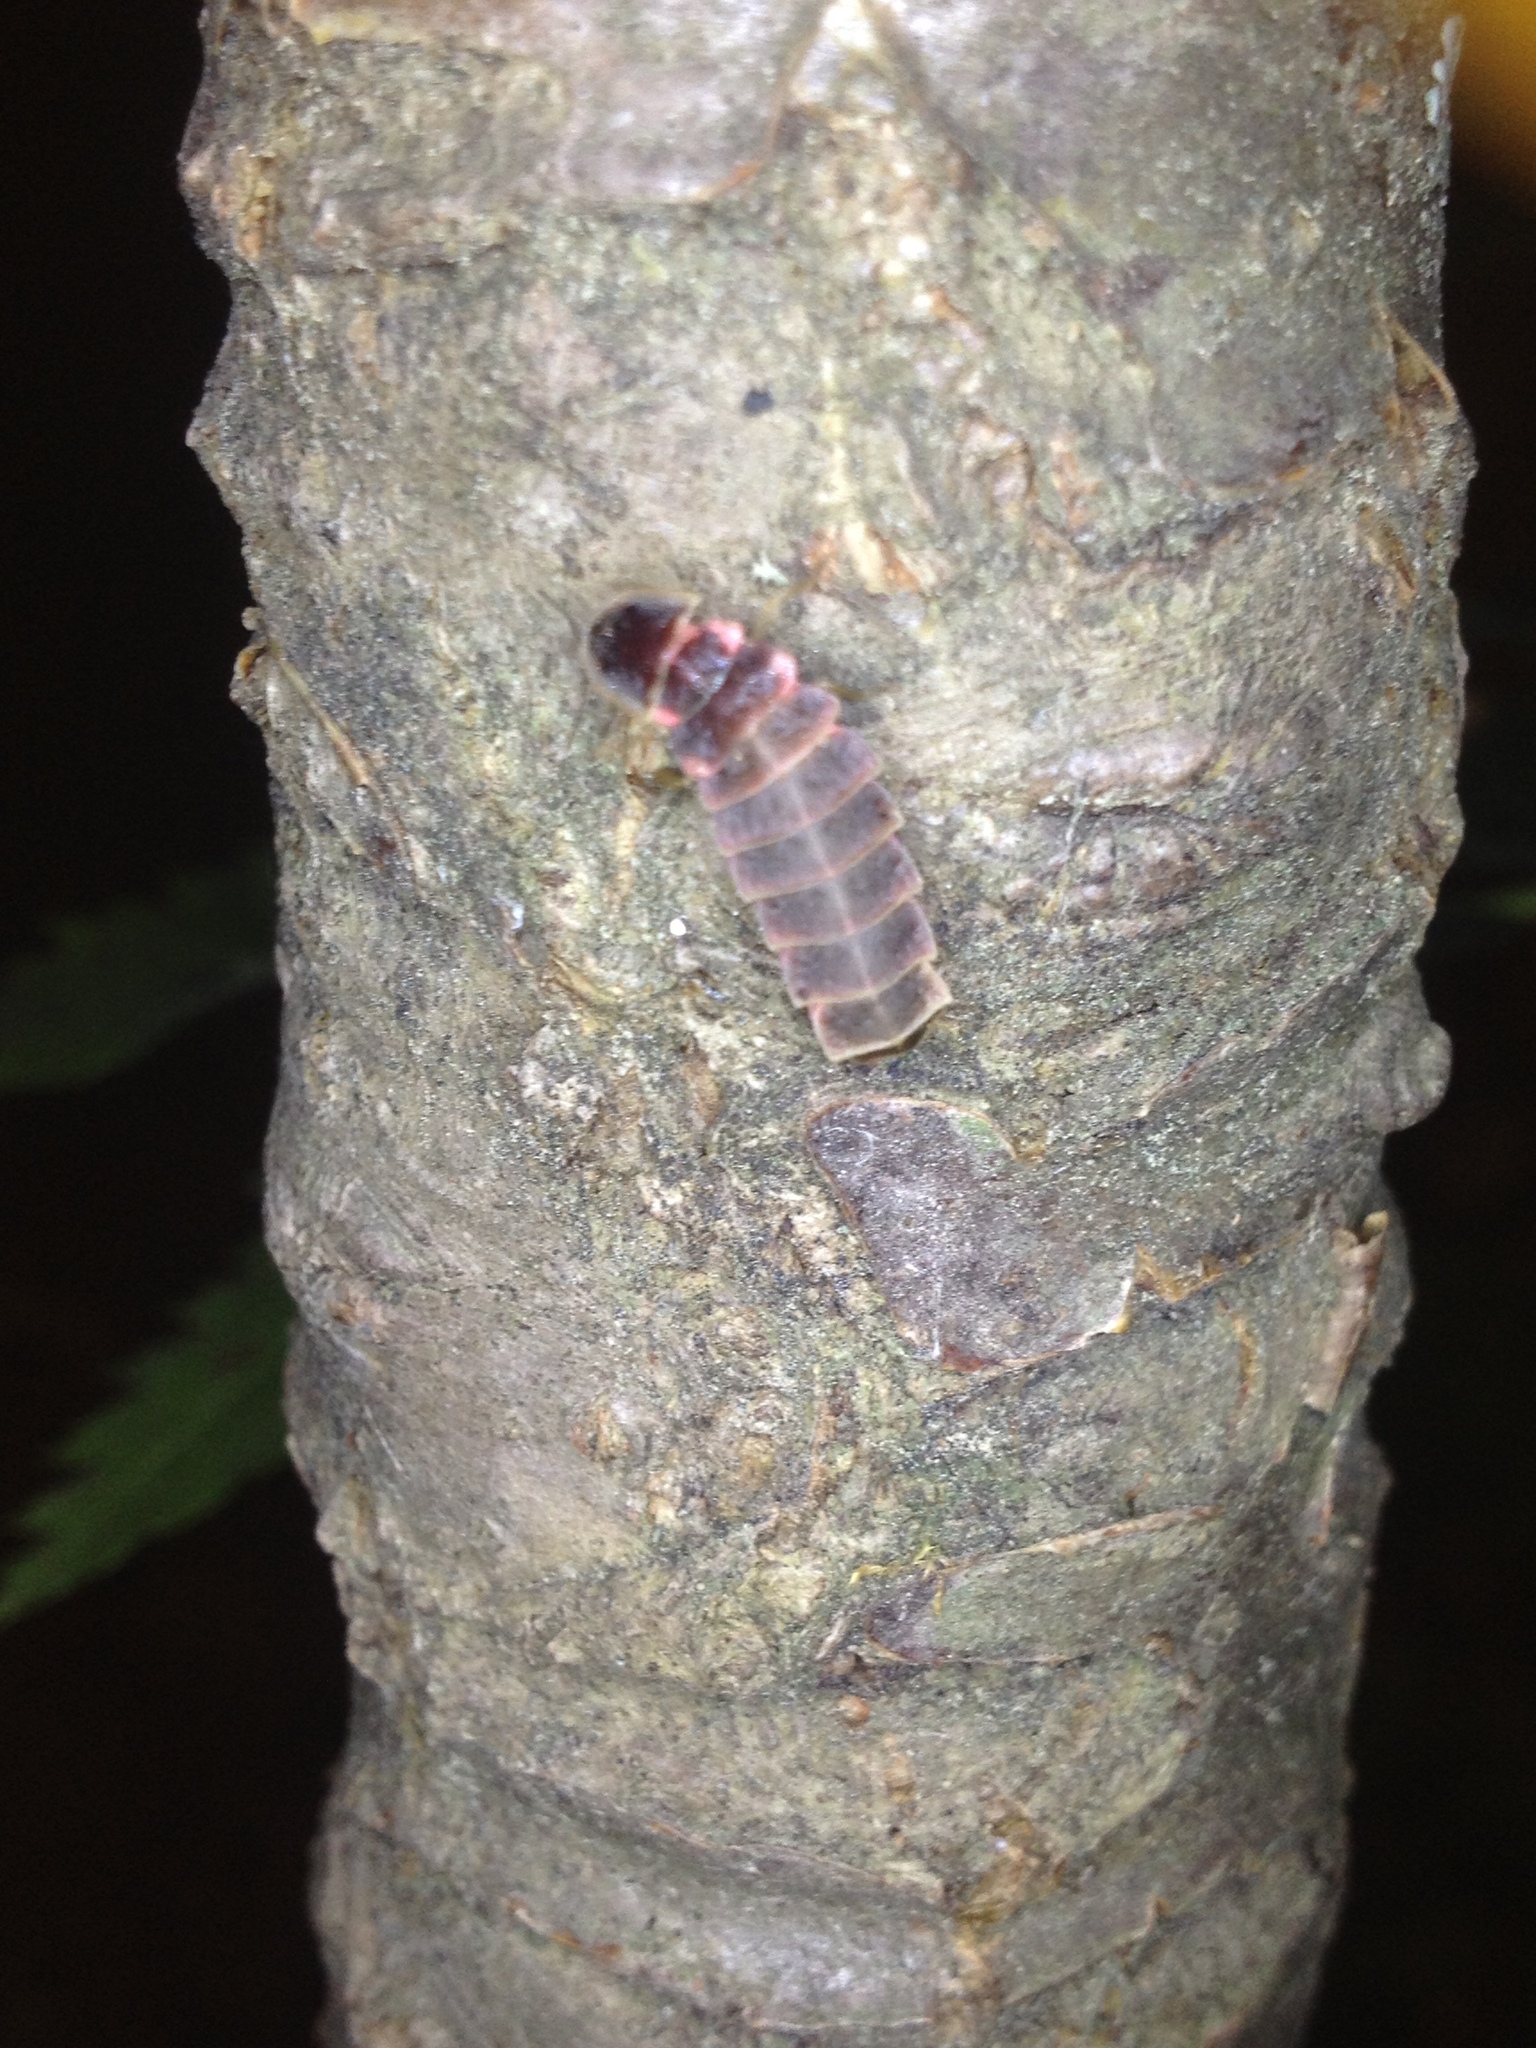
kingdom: Animalia
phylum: Arthropoda
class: Insecta
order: Coleoptera
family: Lampyridae
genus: Lampyris
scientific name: Lampyris noctiluca
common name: Glow-worm
